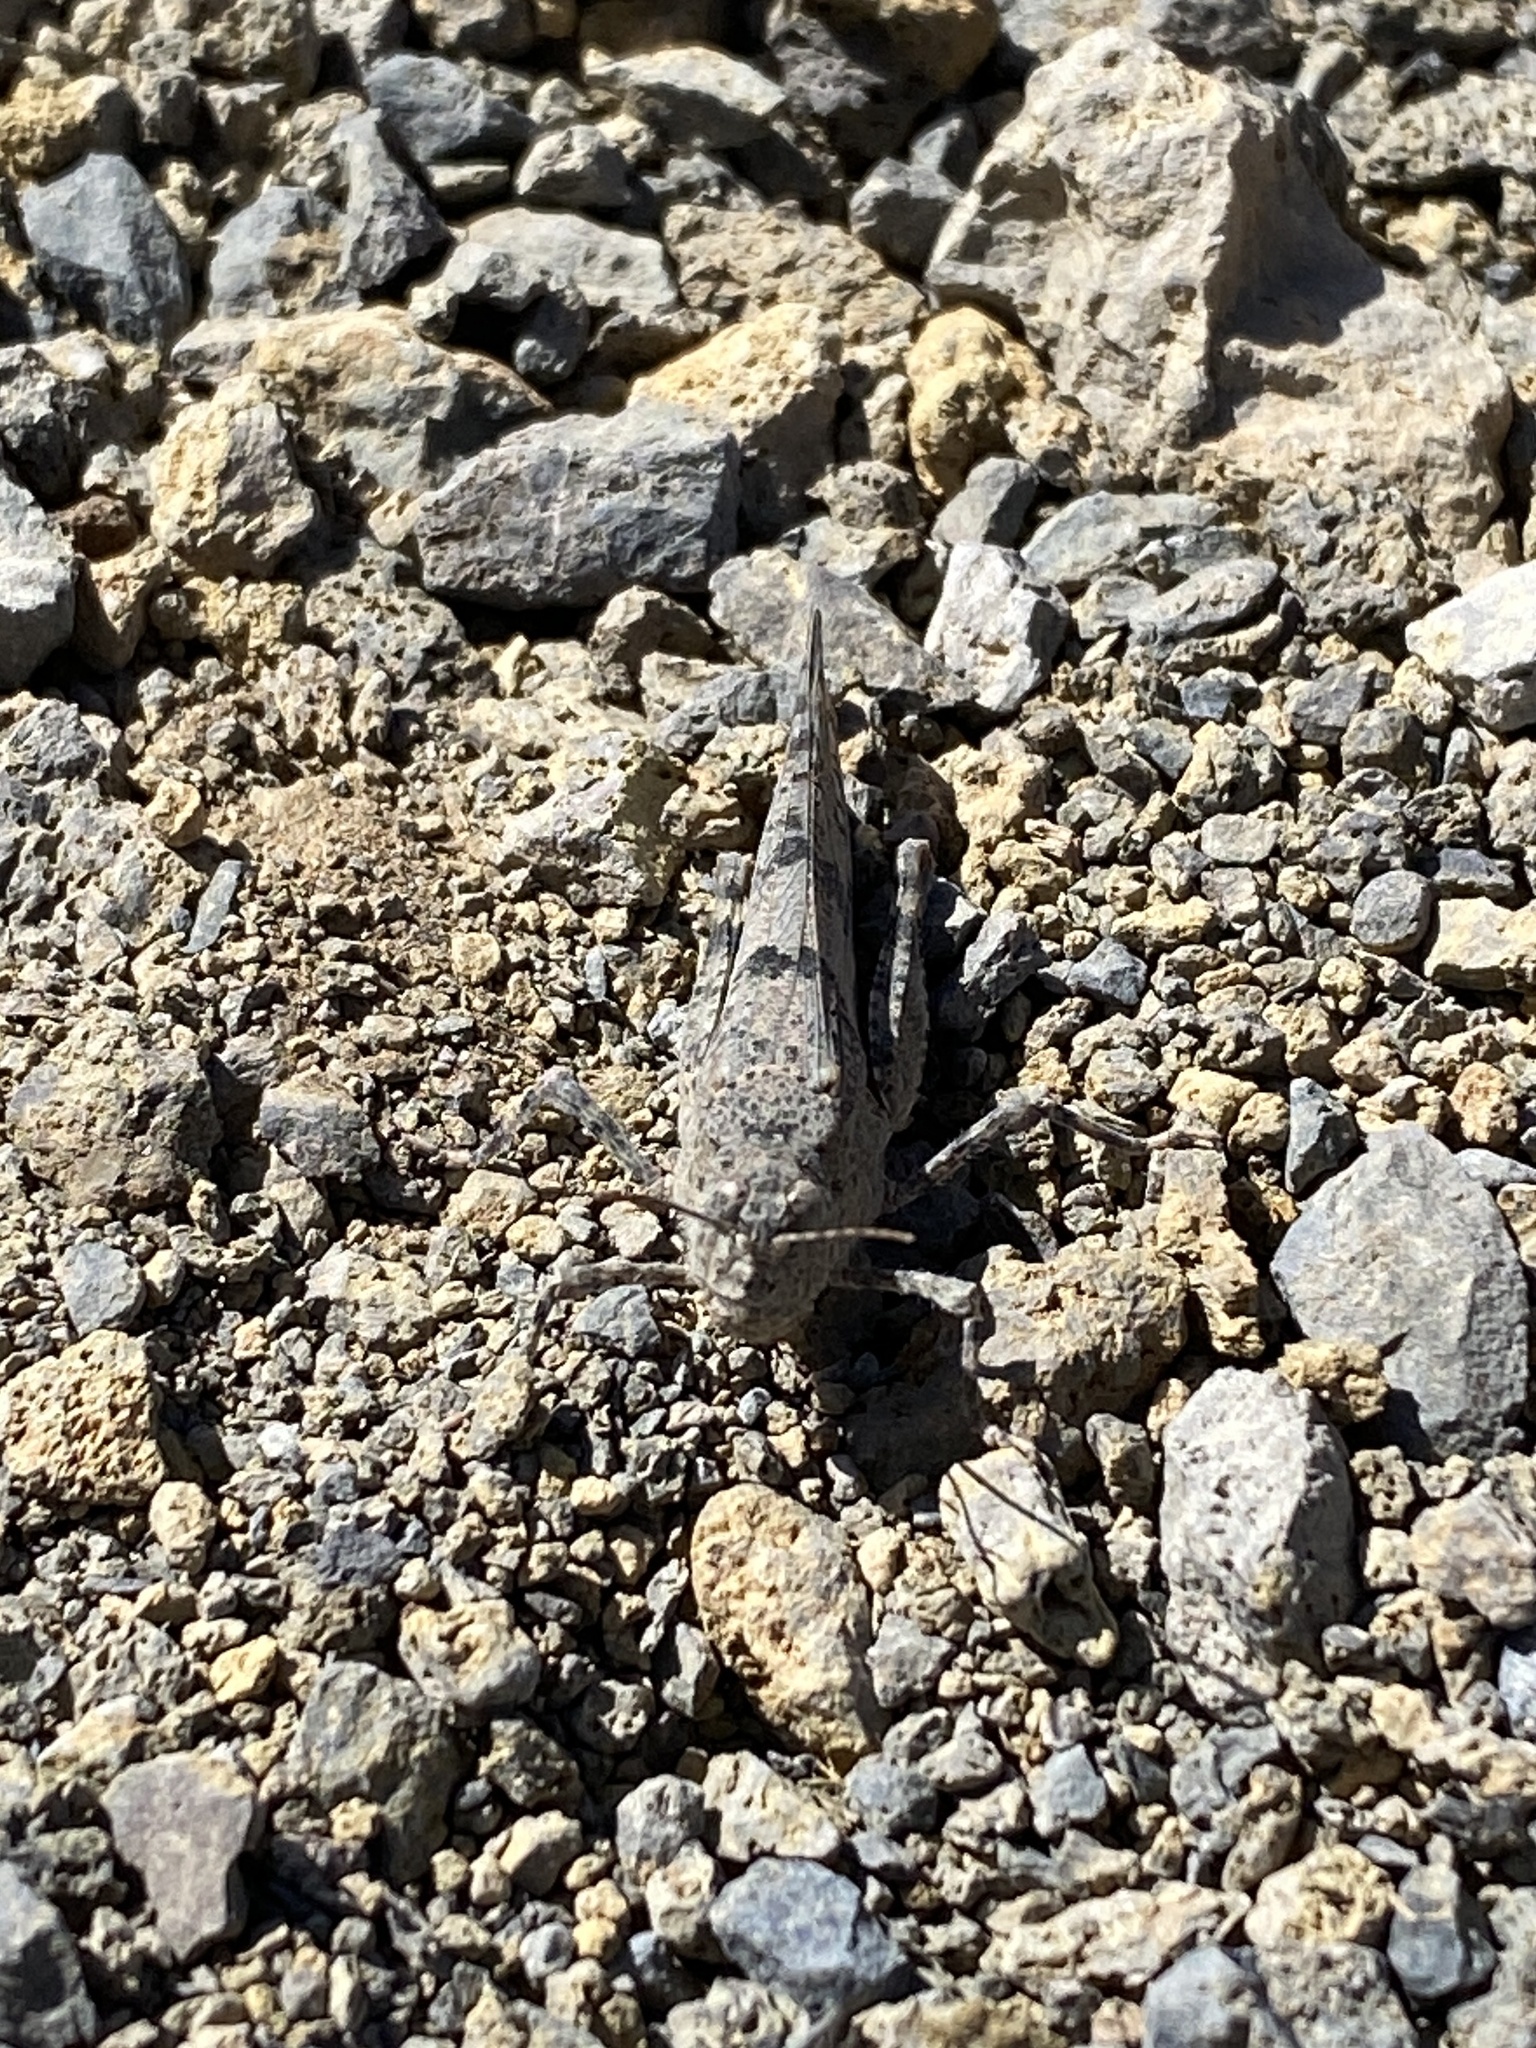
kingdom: Animalia
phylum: Arthropoda
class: Insecta
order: Orthoptera
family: Acrididae
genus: Sphingonotus
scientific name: Sphingonotus rubescens
